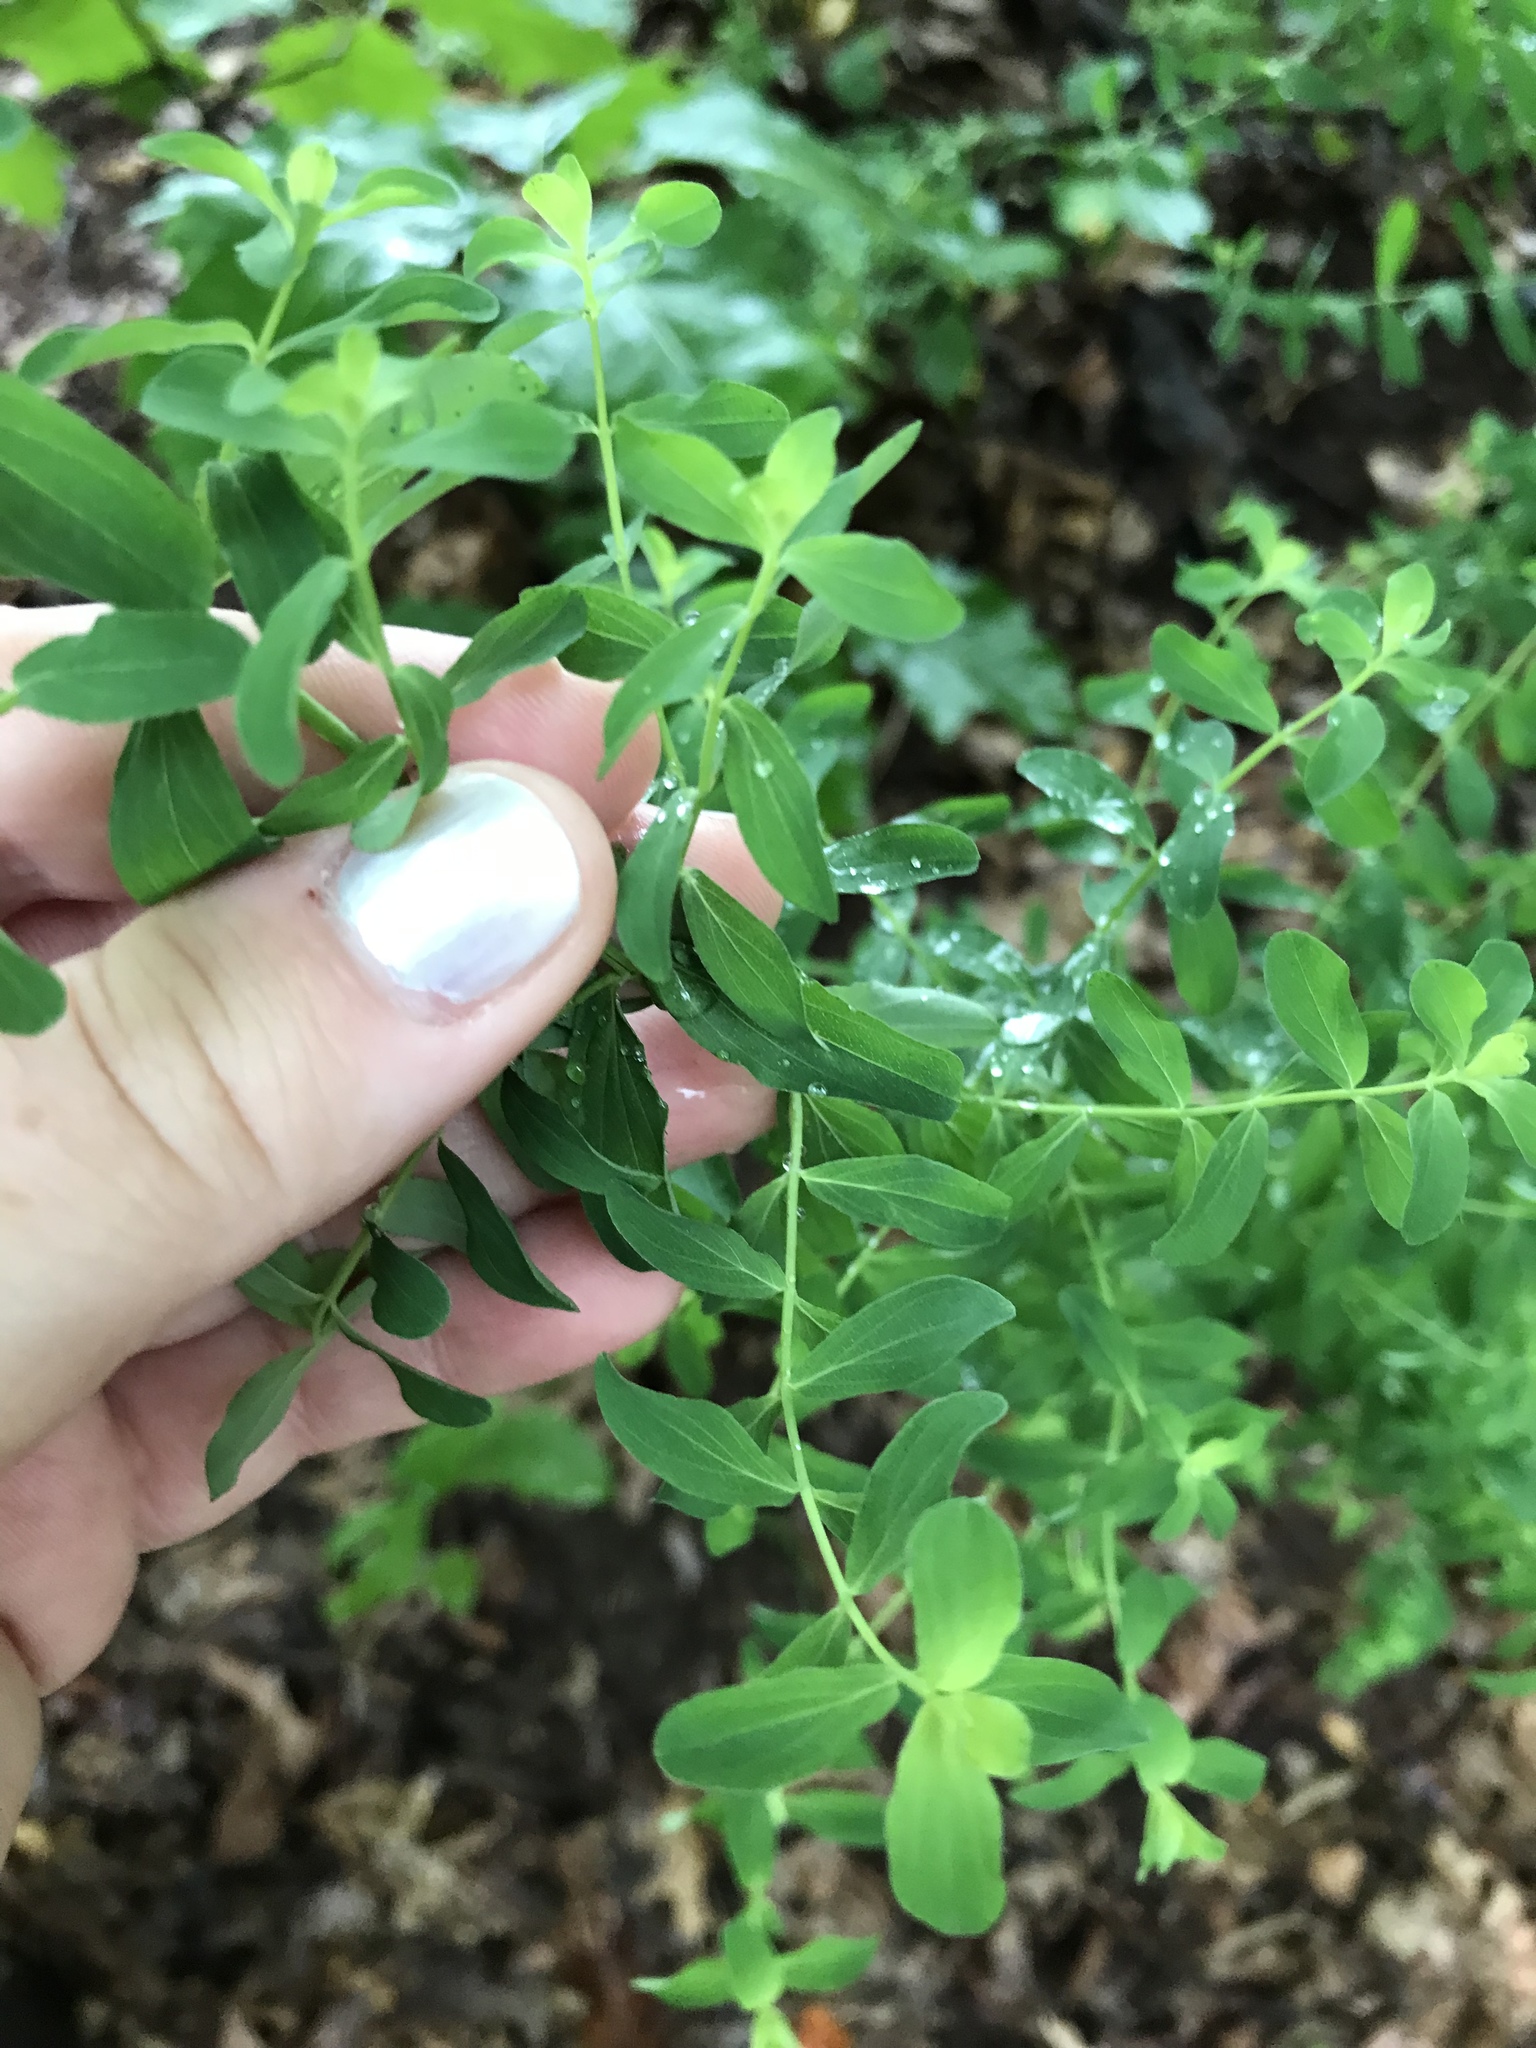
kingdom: Plantae
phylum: Tracheophyta
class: Magnoliopsida
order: Malpighiales
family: Hypericaceae
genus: Hypericum
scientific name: Hypericum perforatum
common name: Common st. johnswort
